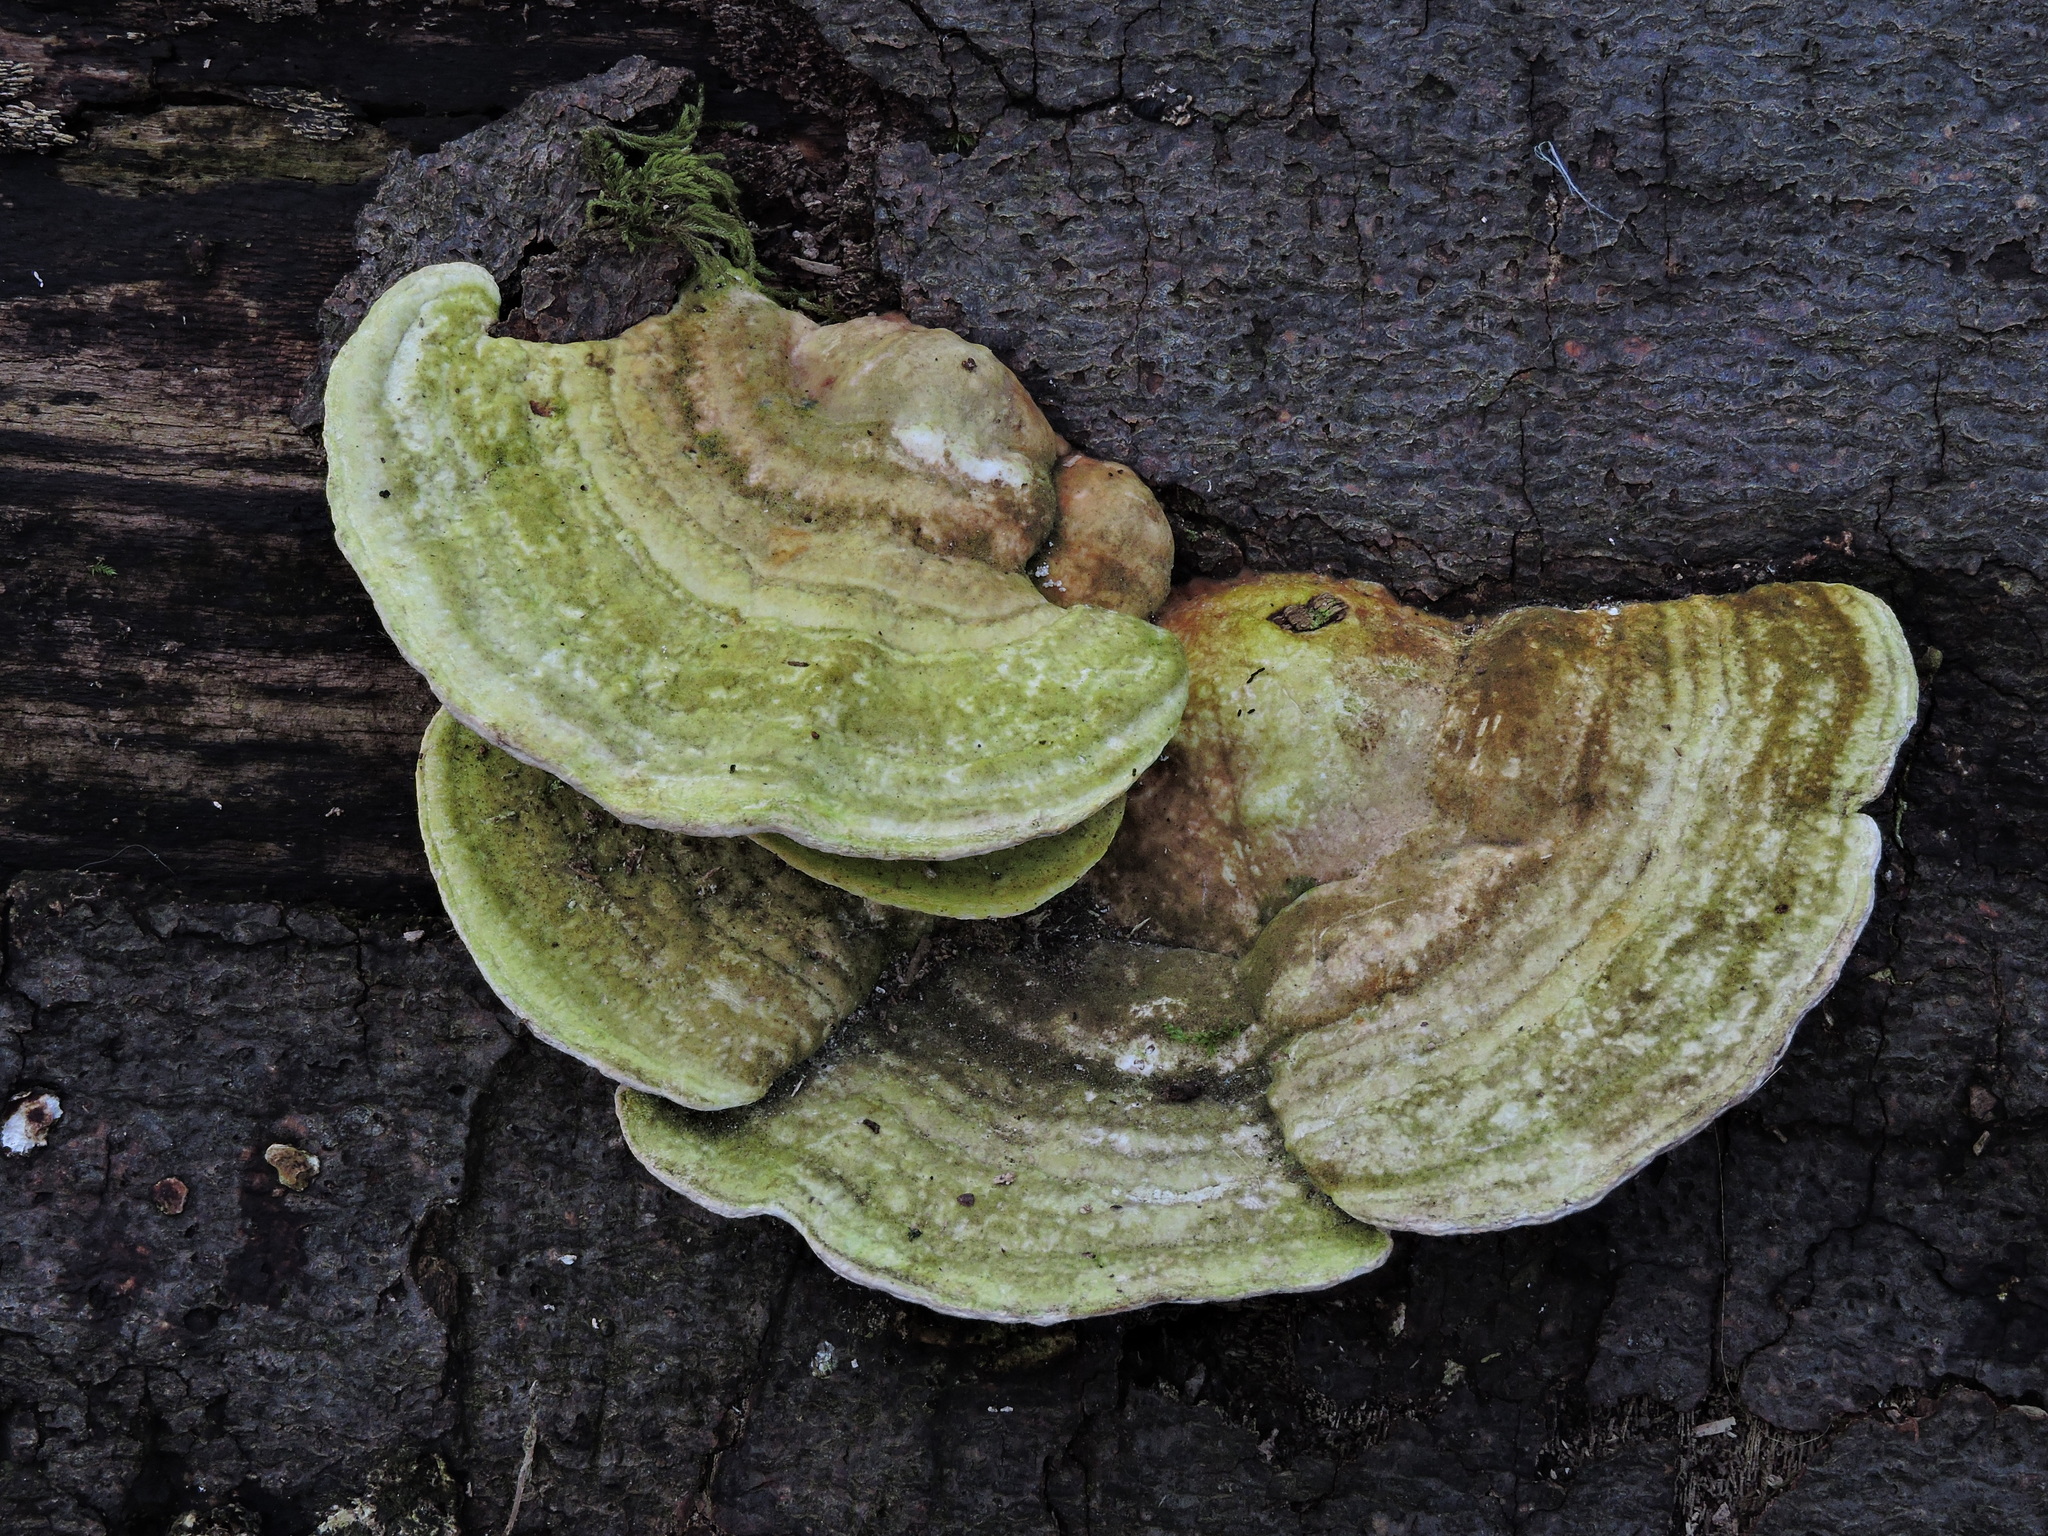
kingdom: Fungi
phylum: Basidiomycota
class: Agaricomycetes
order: Polyporales
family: Polyporaceae
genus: Trametes
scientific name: Trametes gibbosa
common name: Lumpy bracket
